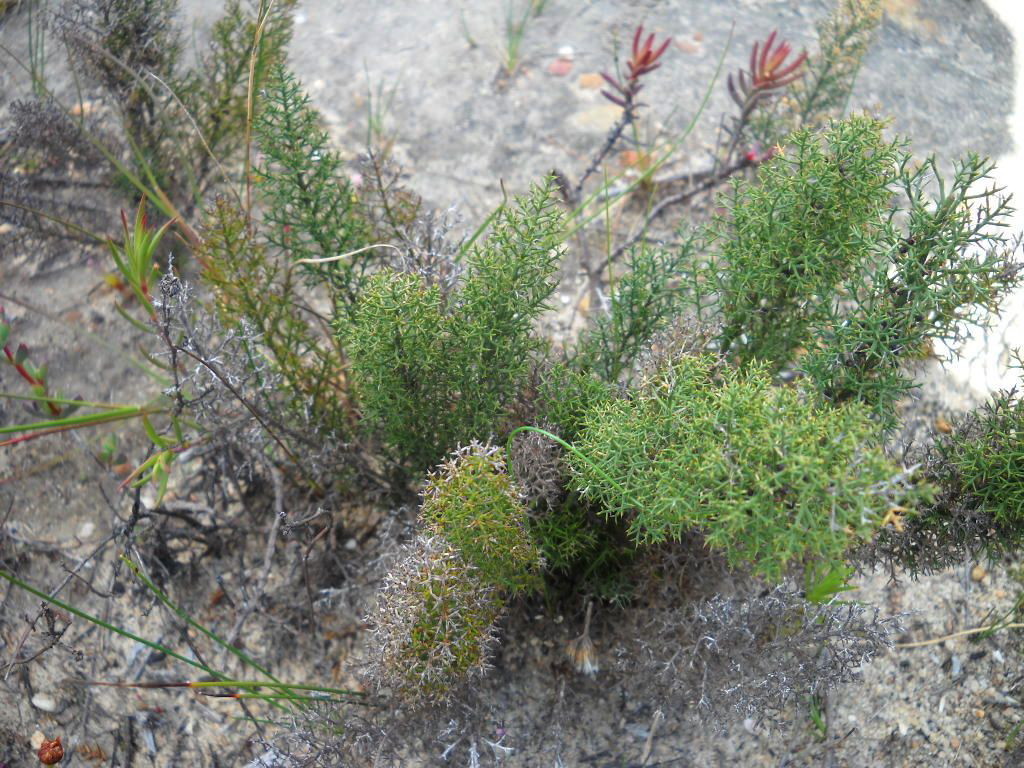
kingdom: Plantae
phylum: Tracheophyta
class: Liliopsida
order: Asparagales
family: Asparagaceae
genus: Asparagus
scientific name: Asparagus oliveri
